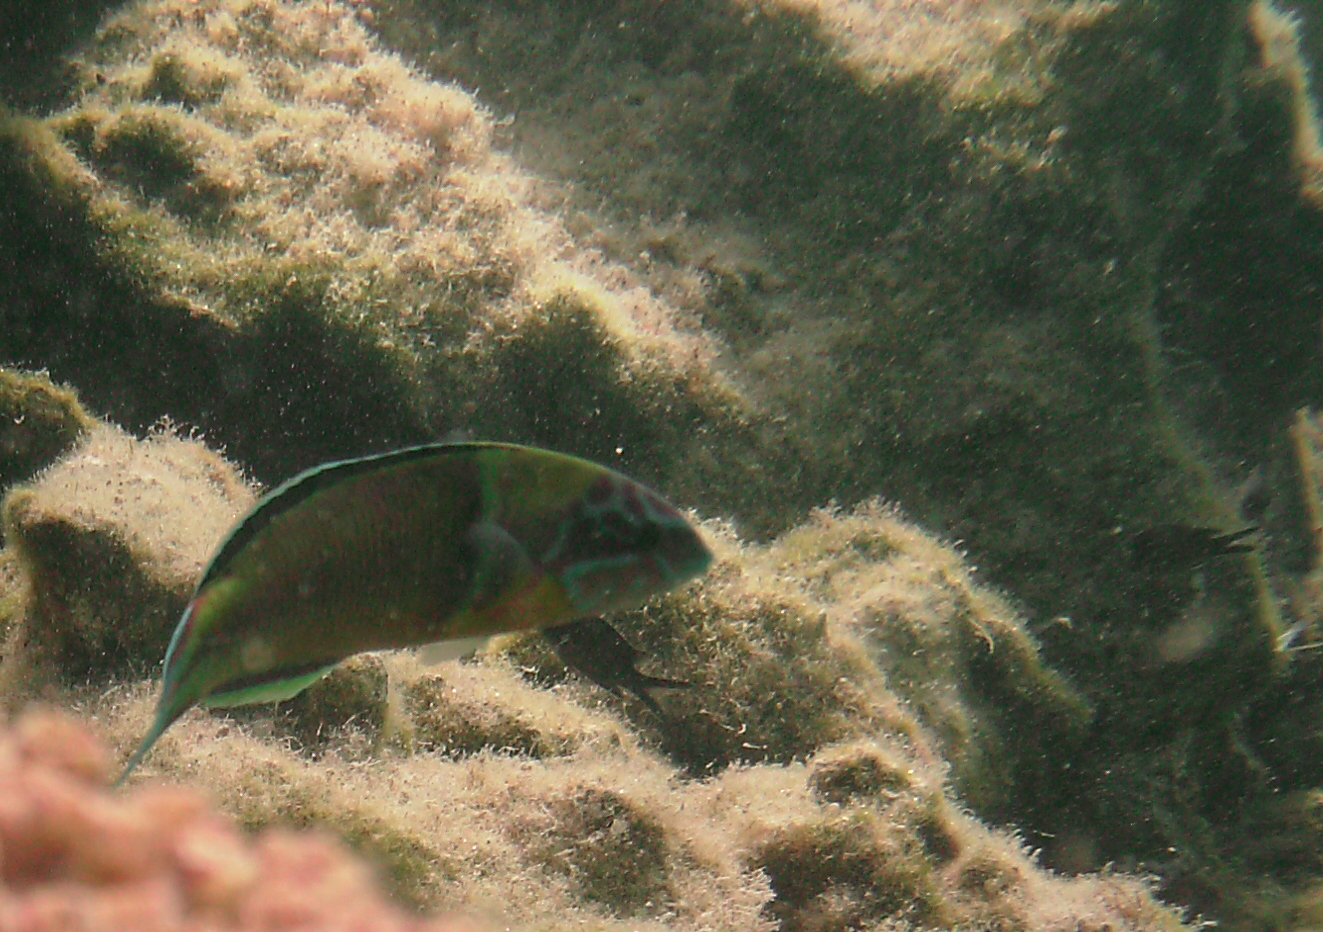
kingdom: Animalia
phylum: Chordata
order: Perciformes
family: Labridae
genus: Thalassoma
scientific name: Thalassoma pavo
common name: Ornate wrasse
